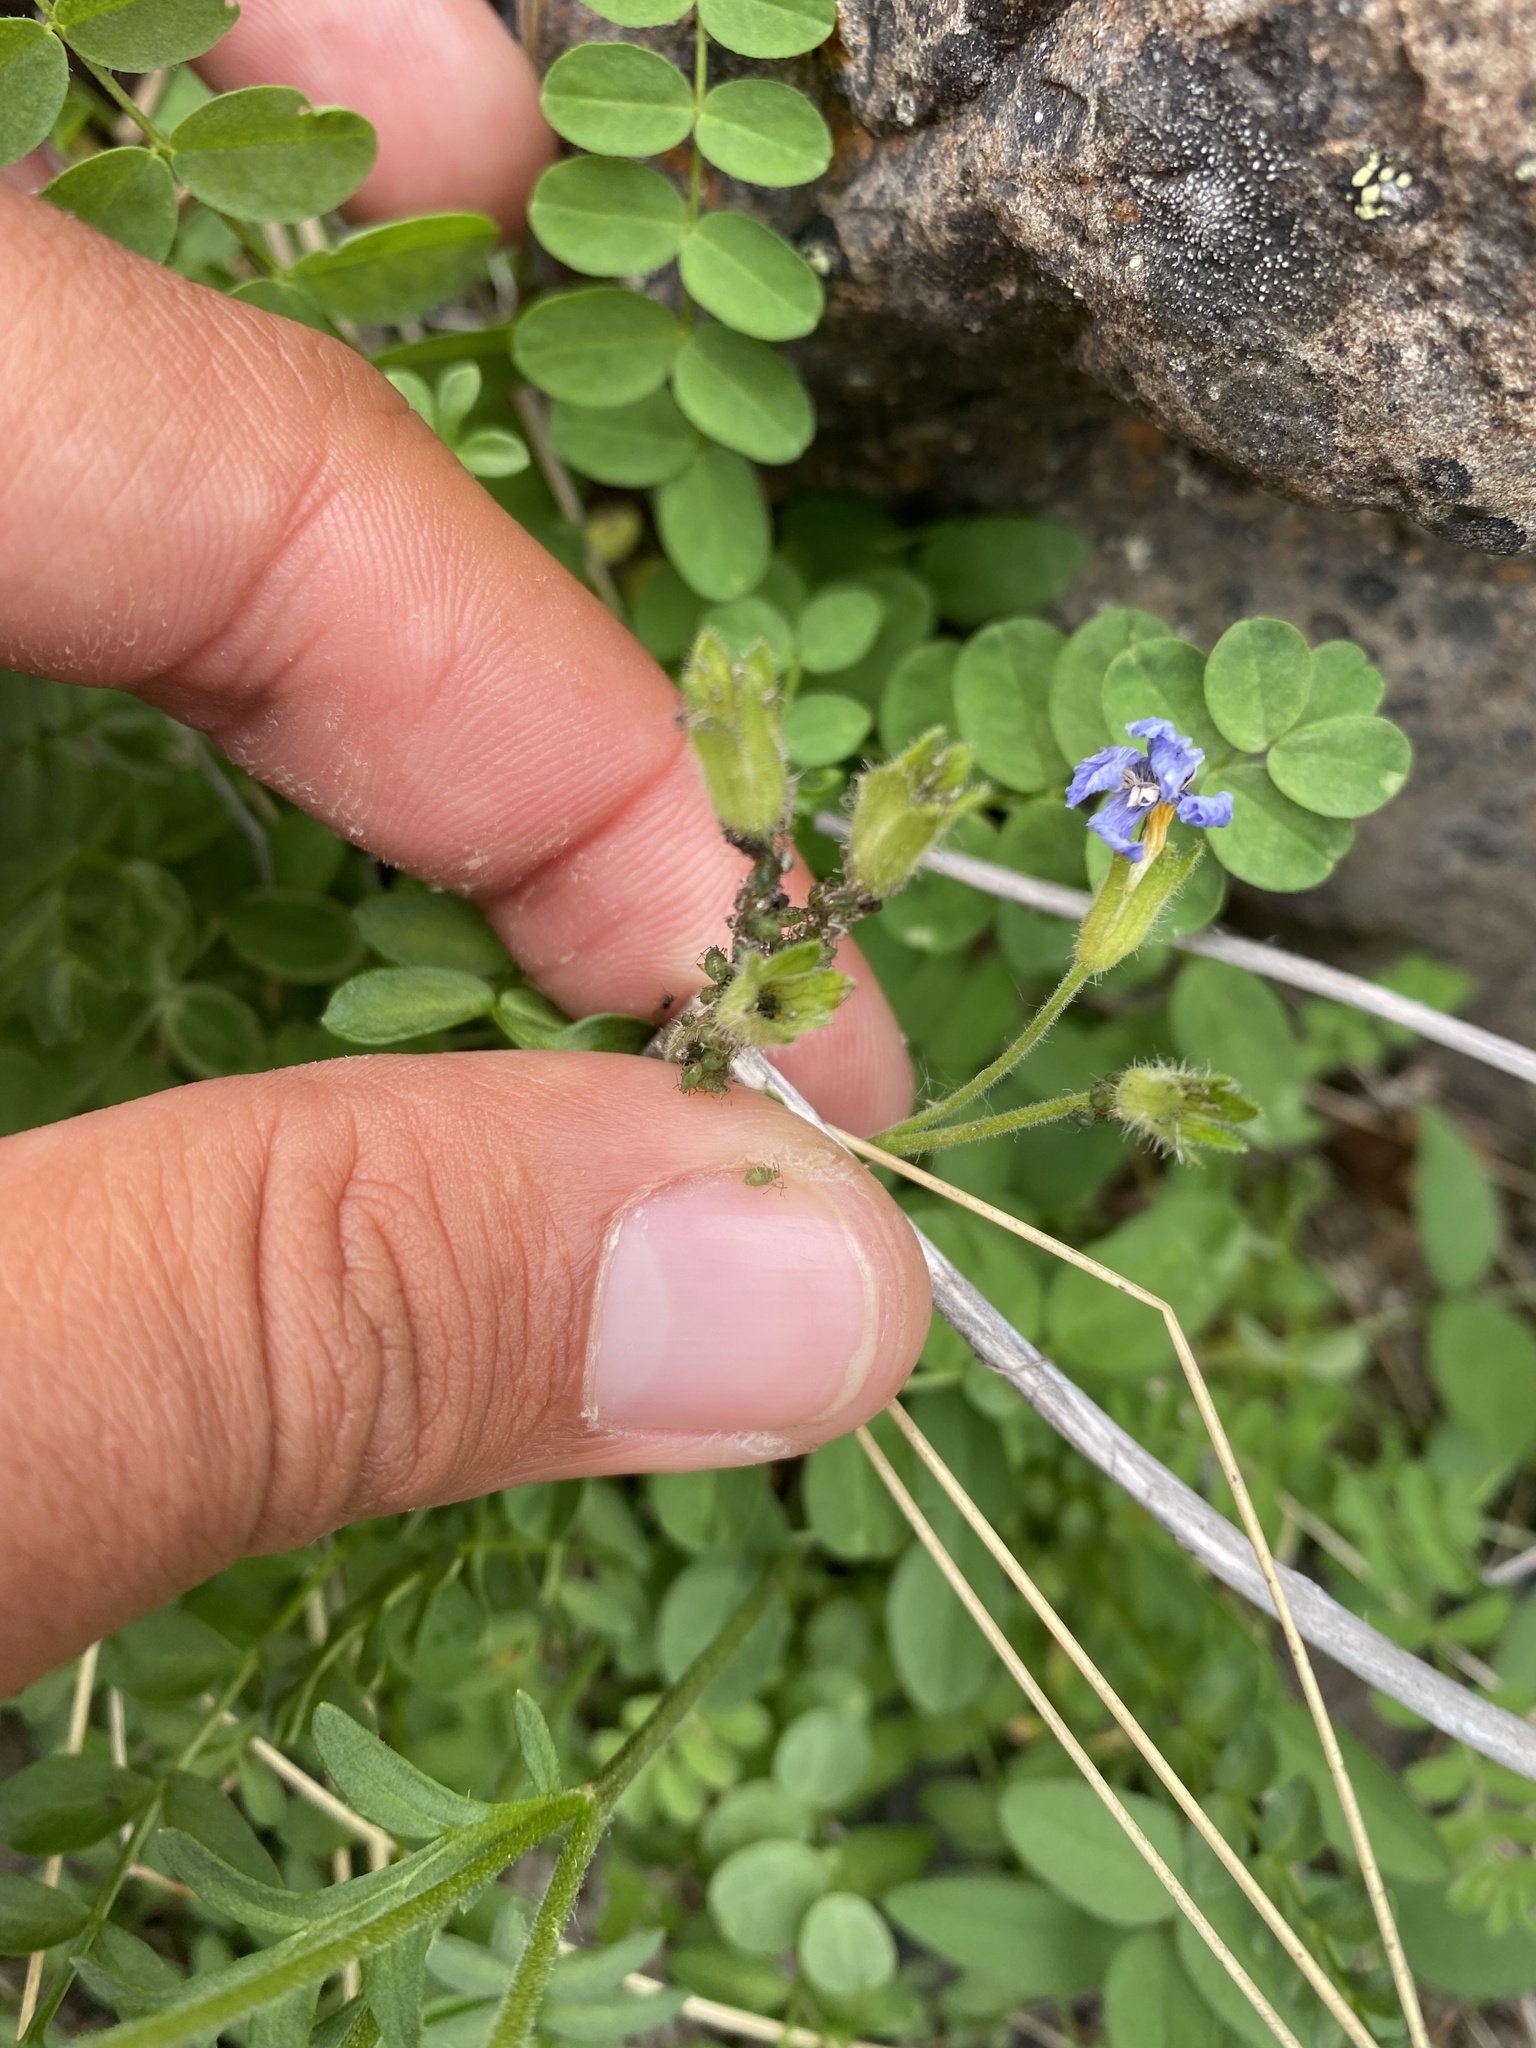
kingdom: Plantae
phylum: Tracheophyta
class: Magnoliopsida
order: Ericales
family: Polemoniaceae
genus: Polemonium
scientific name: Polemonium boreale
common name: Boreal jacob's-ladder
